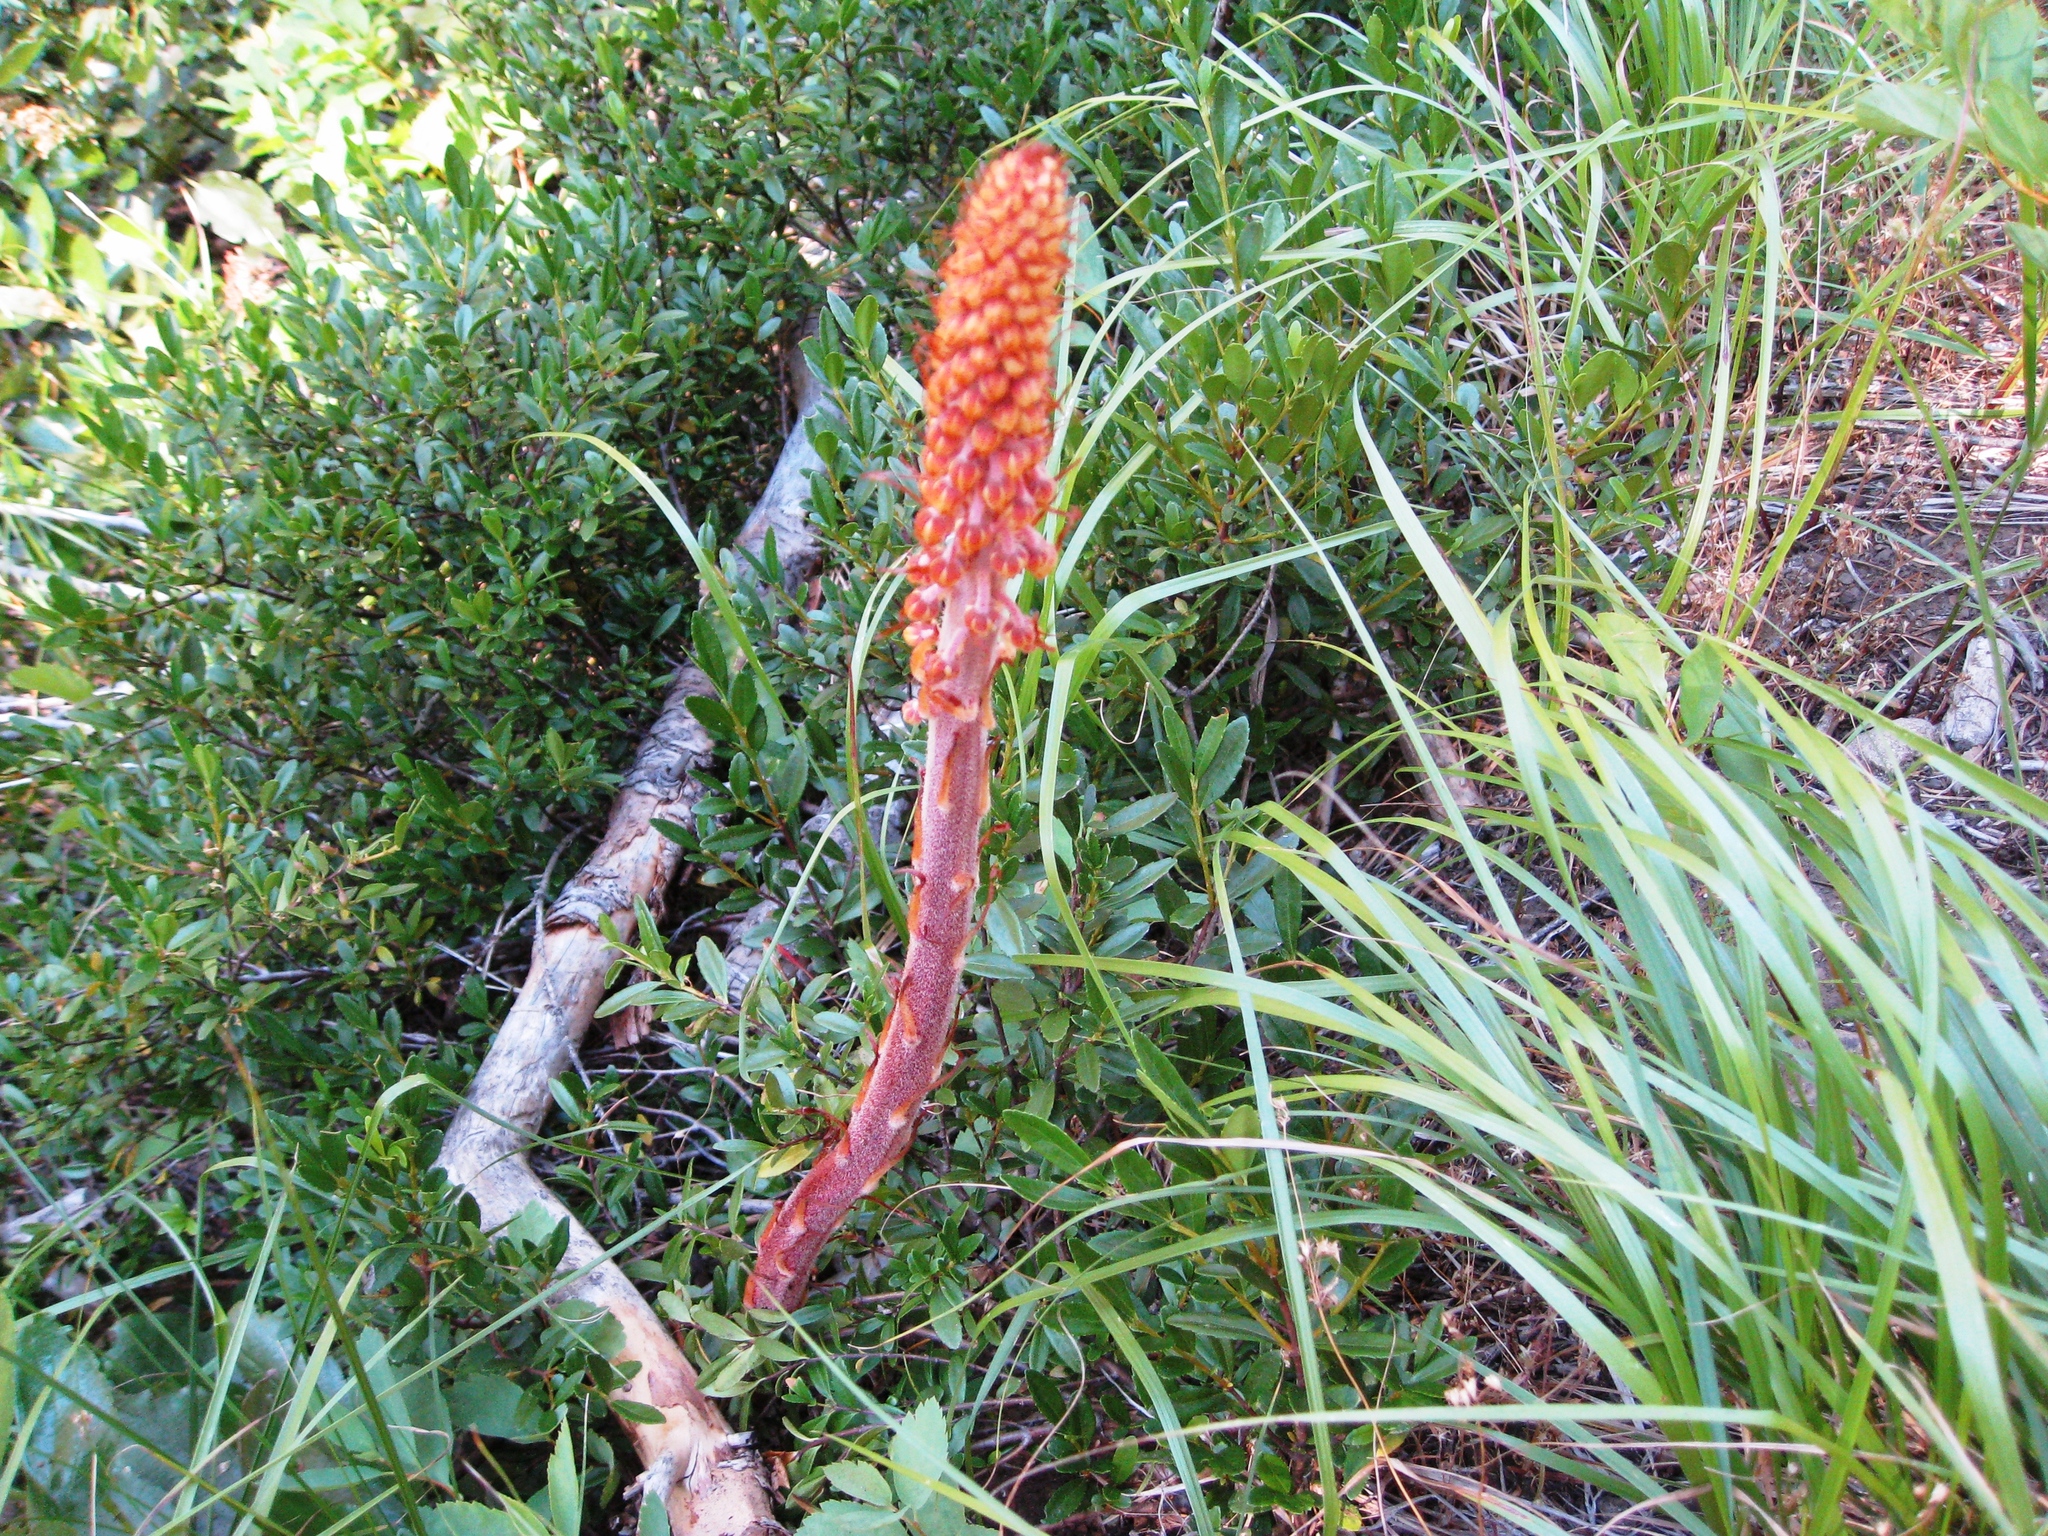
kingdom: Plantae
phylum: Tracheophyta
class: Magnoliopsida
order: Ericales
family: Ericaceae
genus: Pterospora
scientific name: Pterospora andromedea
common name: Giant bird's-nest
